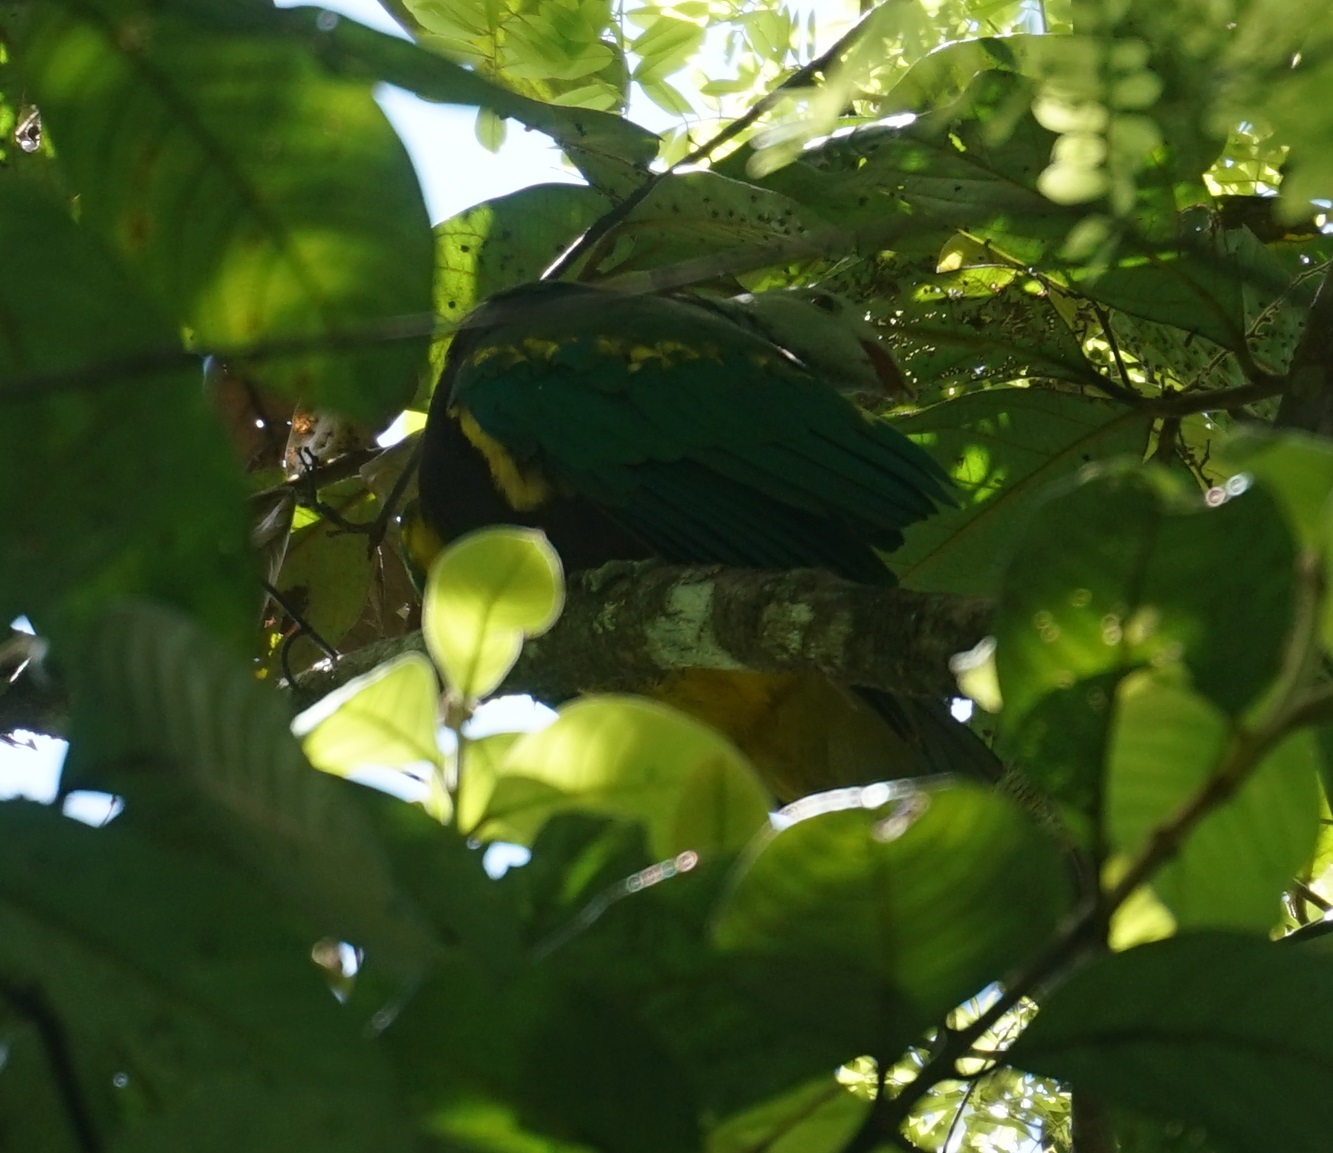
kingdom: Animalia
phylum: Chordata
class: Aves
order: Columbiformes
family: Columbidae
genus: Ptilinopus
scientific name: Ptilinopus magnificus
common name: Wompoo fruit dove
